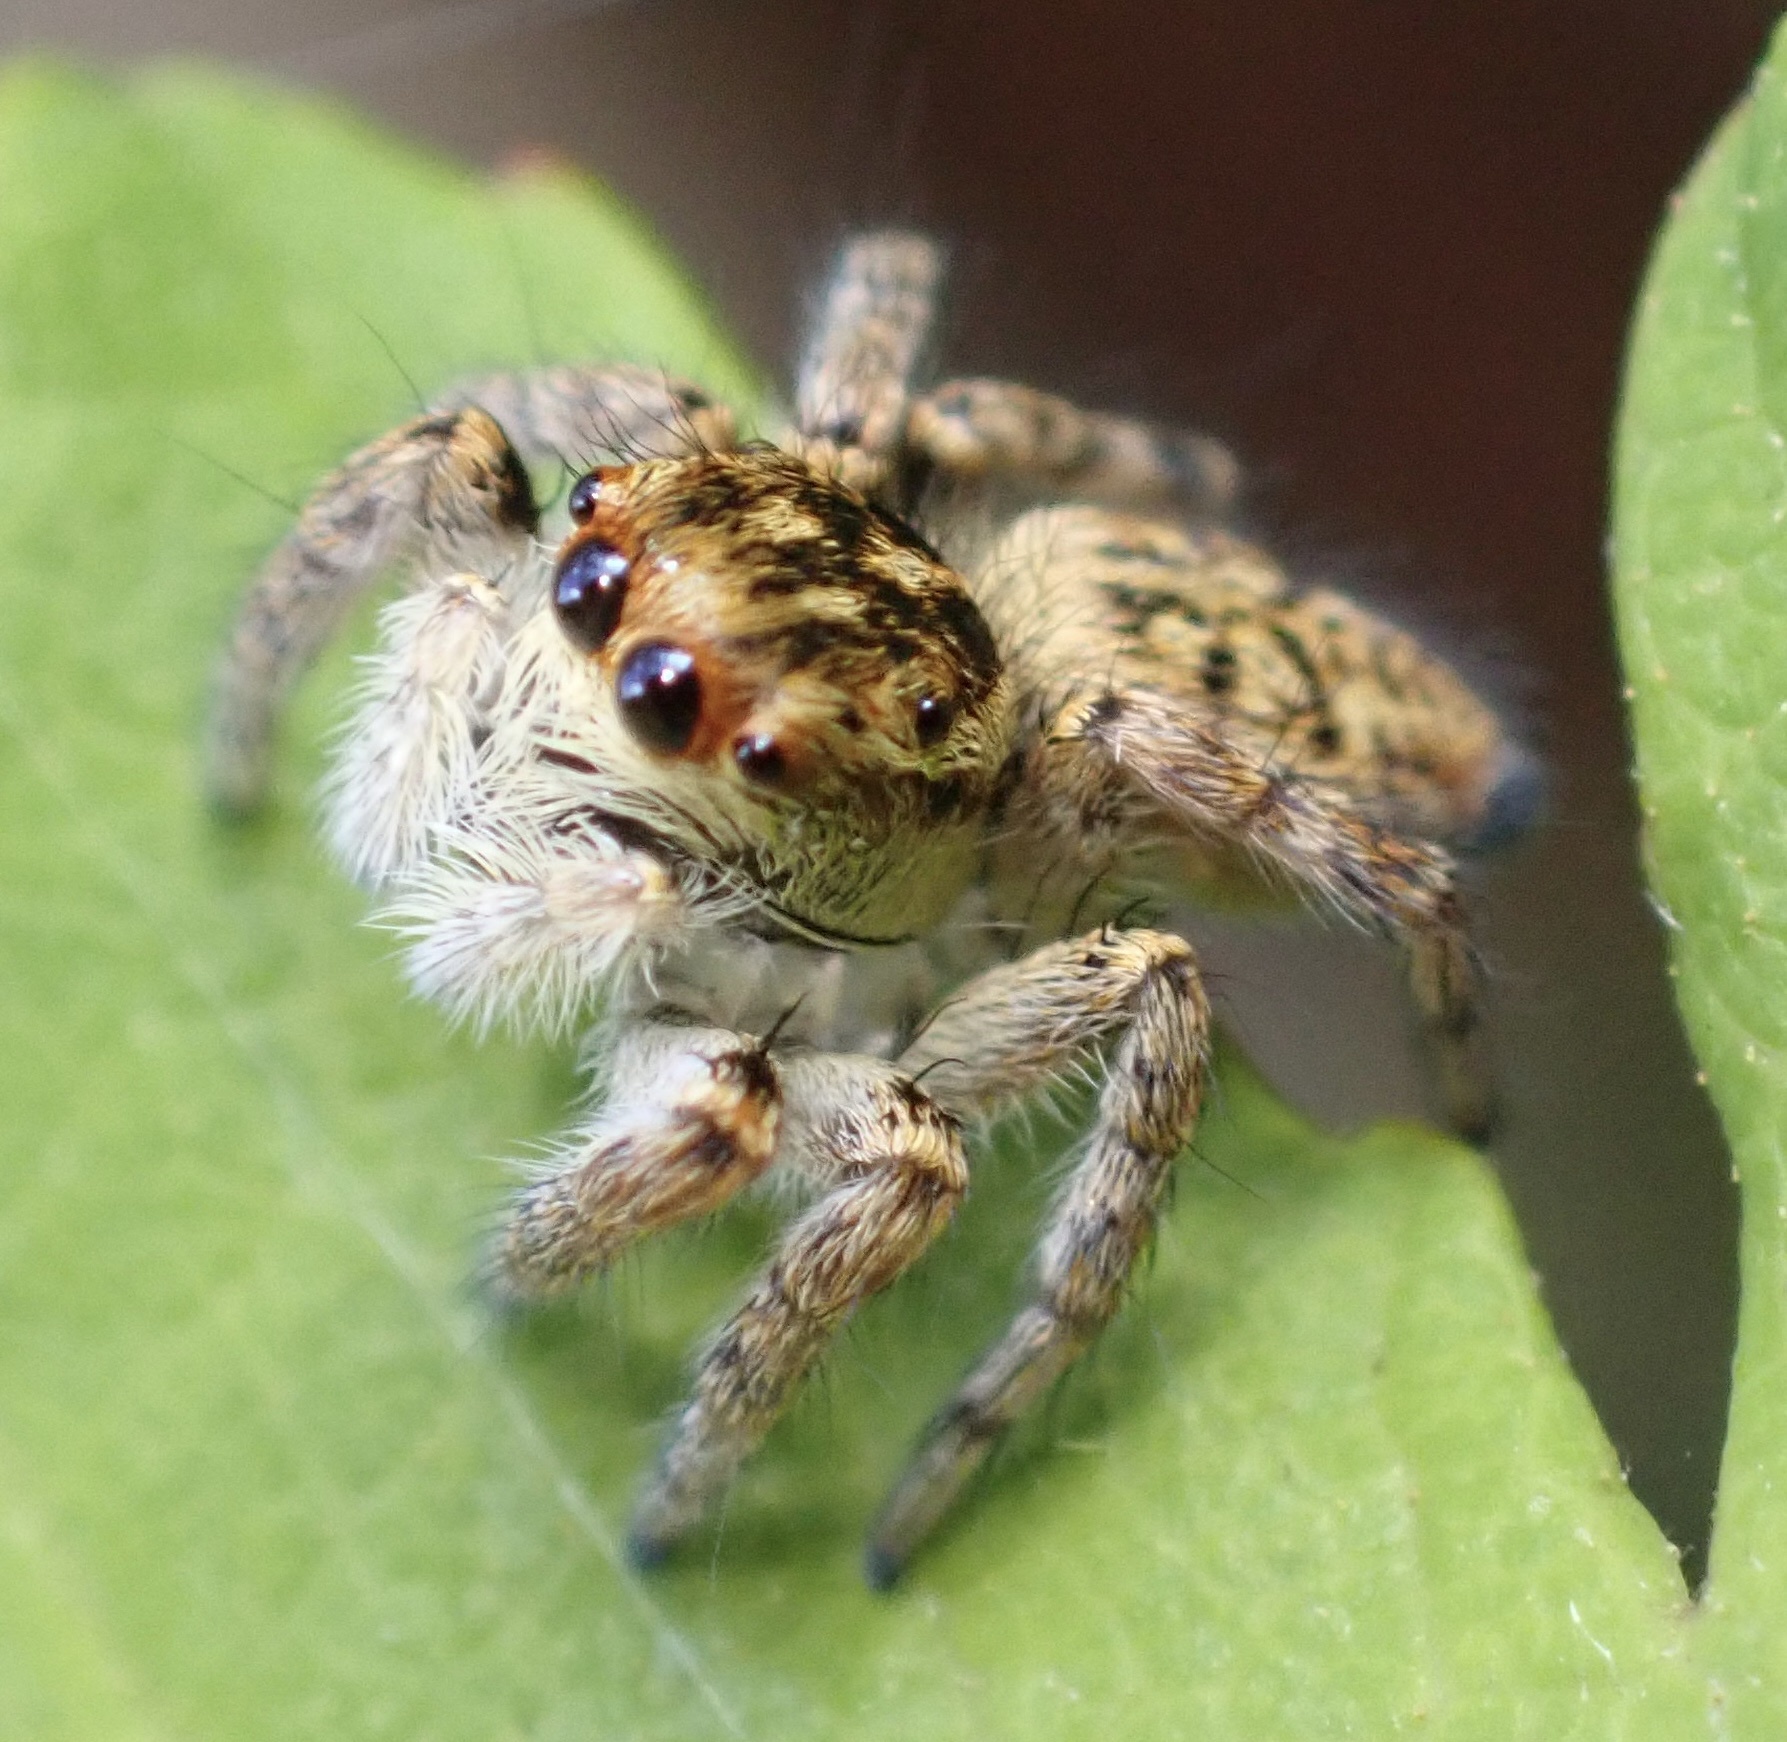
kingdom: Animalia
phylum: Arthropoda
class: Arachnida
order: Araneae
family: Salticidae
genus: Carrhotus
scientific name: Carrhotus xanthogramma
